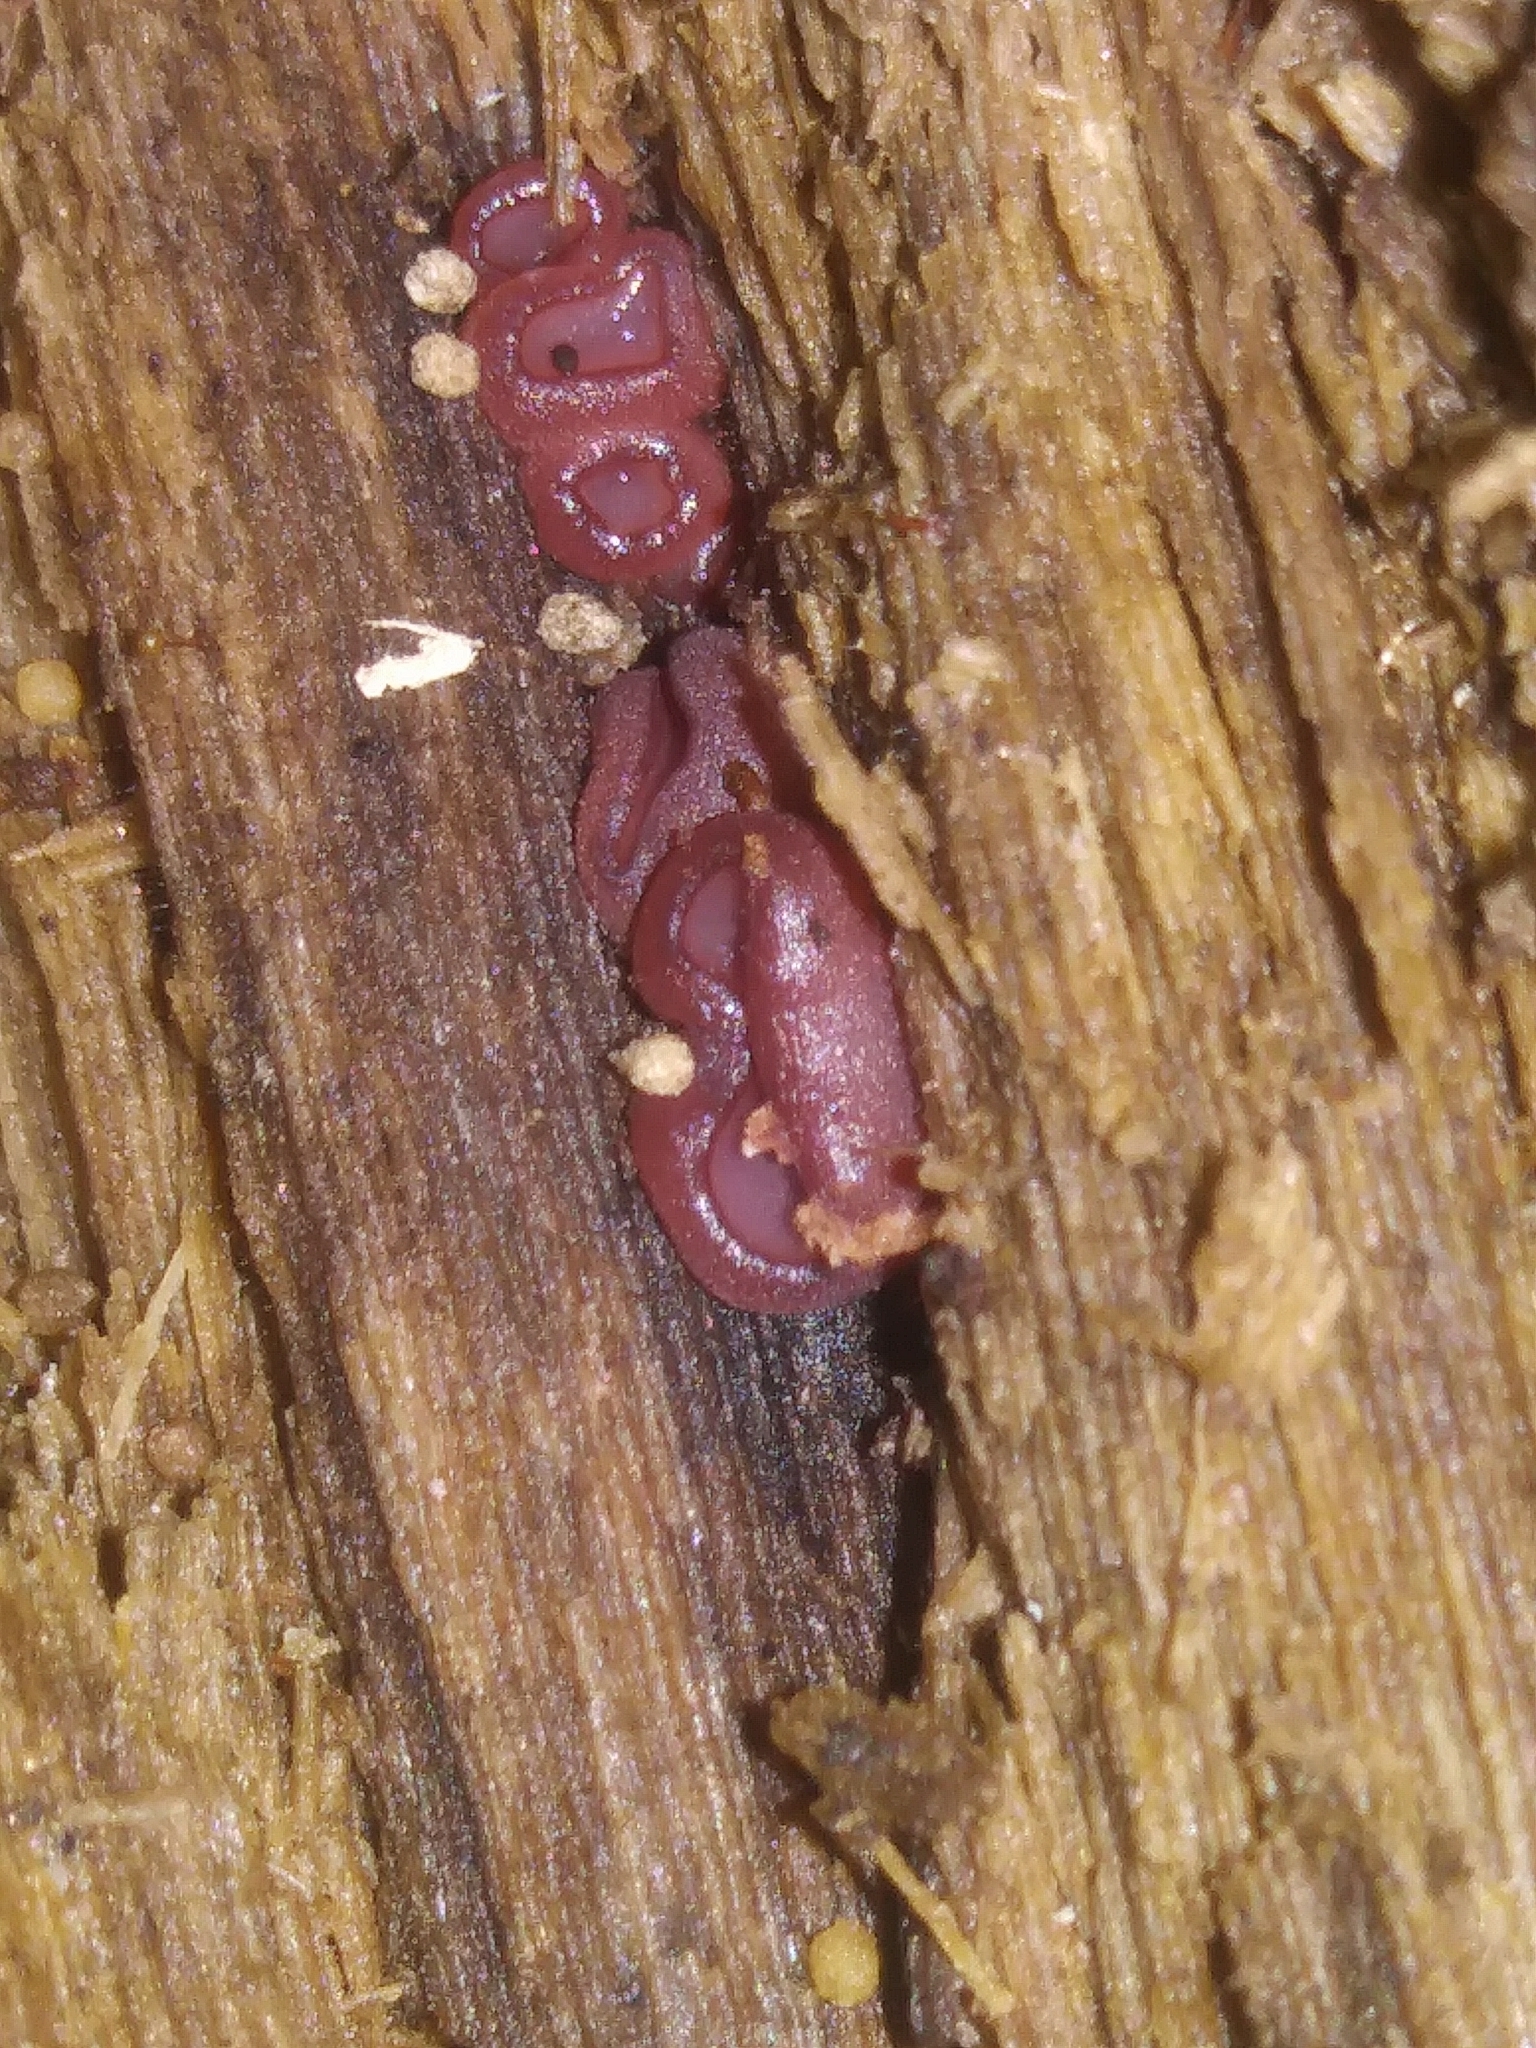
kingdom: Fungi
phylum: Ascomycota
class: Leotiomycetes
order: Helotiales
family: Gelatinodiscaceae
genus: Ascocoryne
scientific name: Ascocoryne sarcoides
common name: Purple jellydisc
